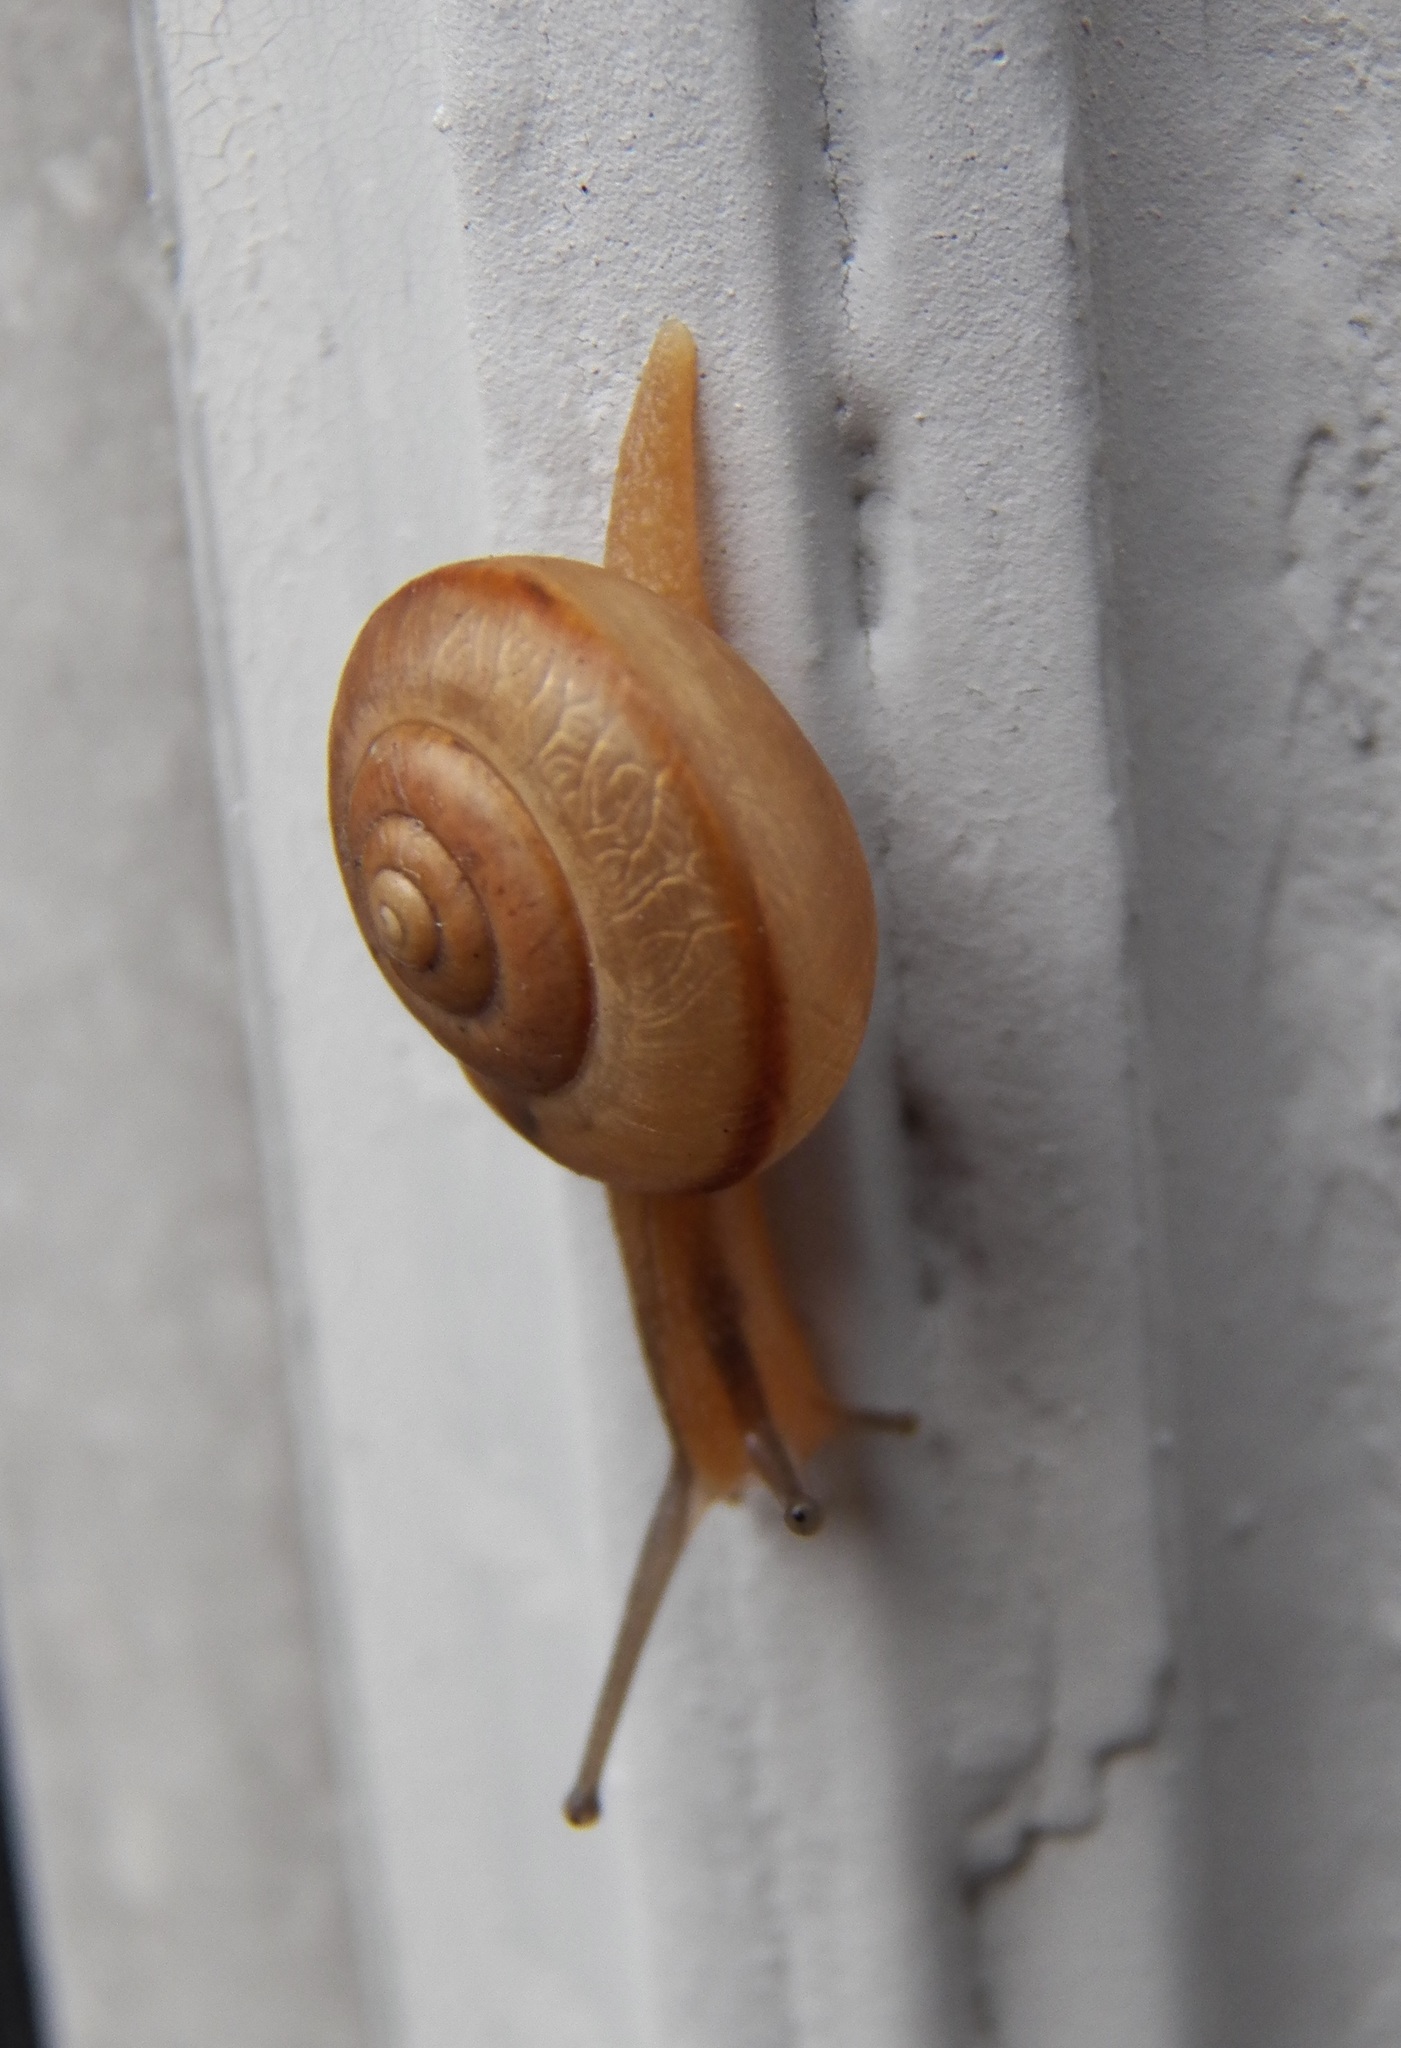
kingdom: Animalia
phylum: Mollusca
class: Gastropoda
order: Stylommatophora
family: Camaenidae
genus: Bradybaena
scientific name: Bradybaena similaris
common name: Asian trampsnail
